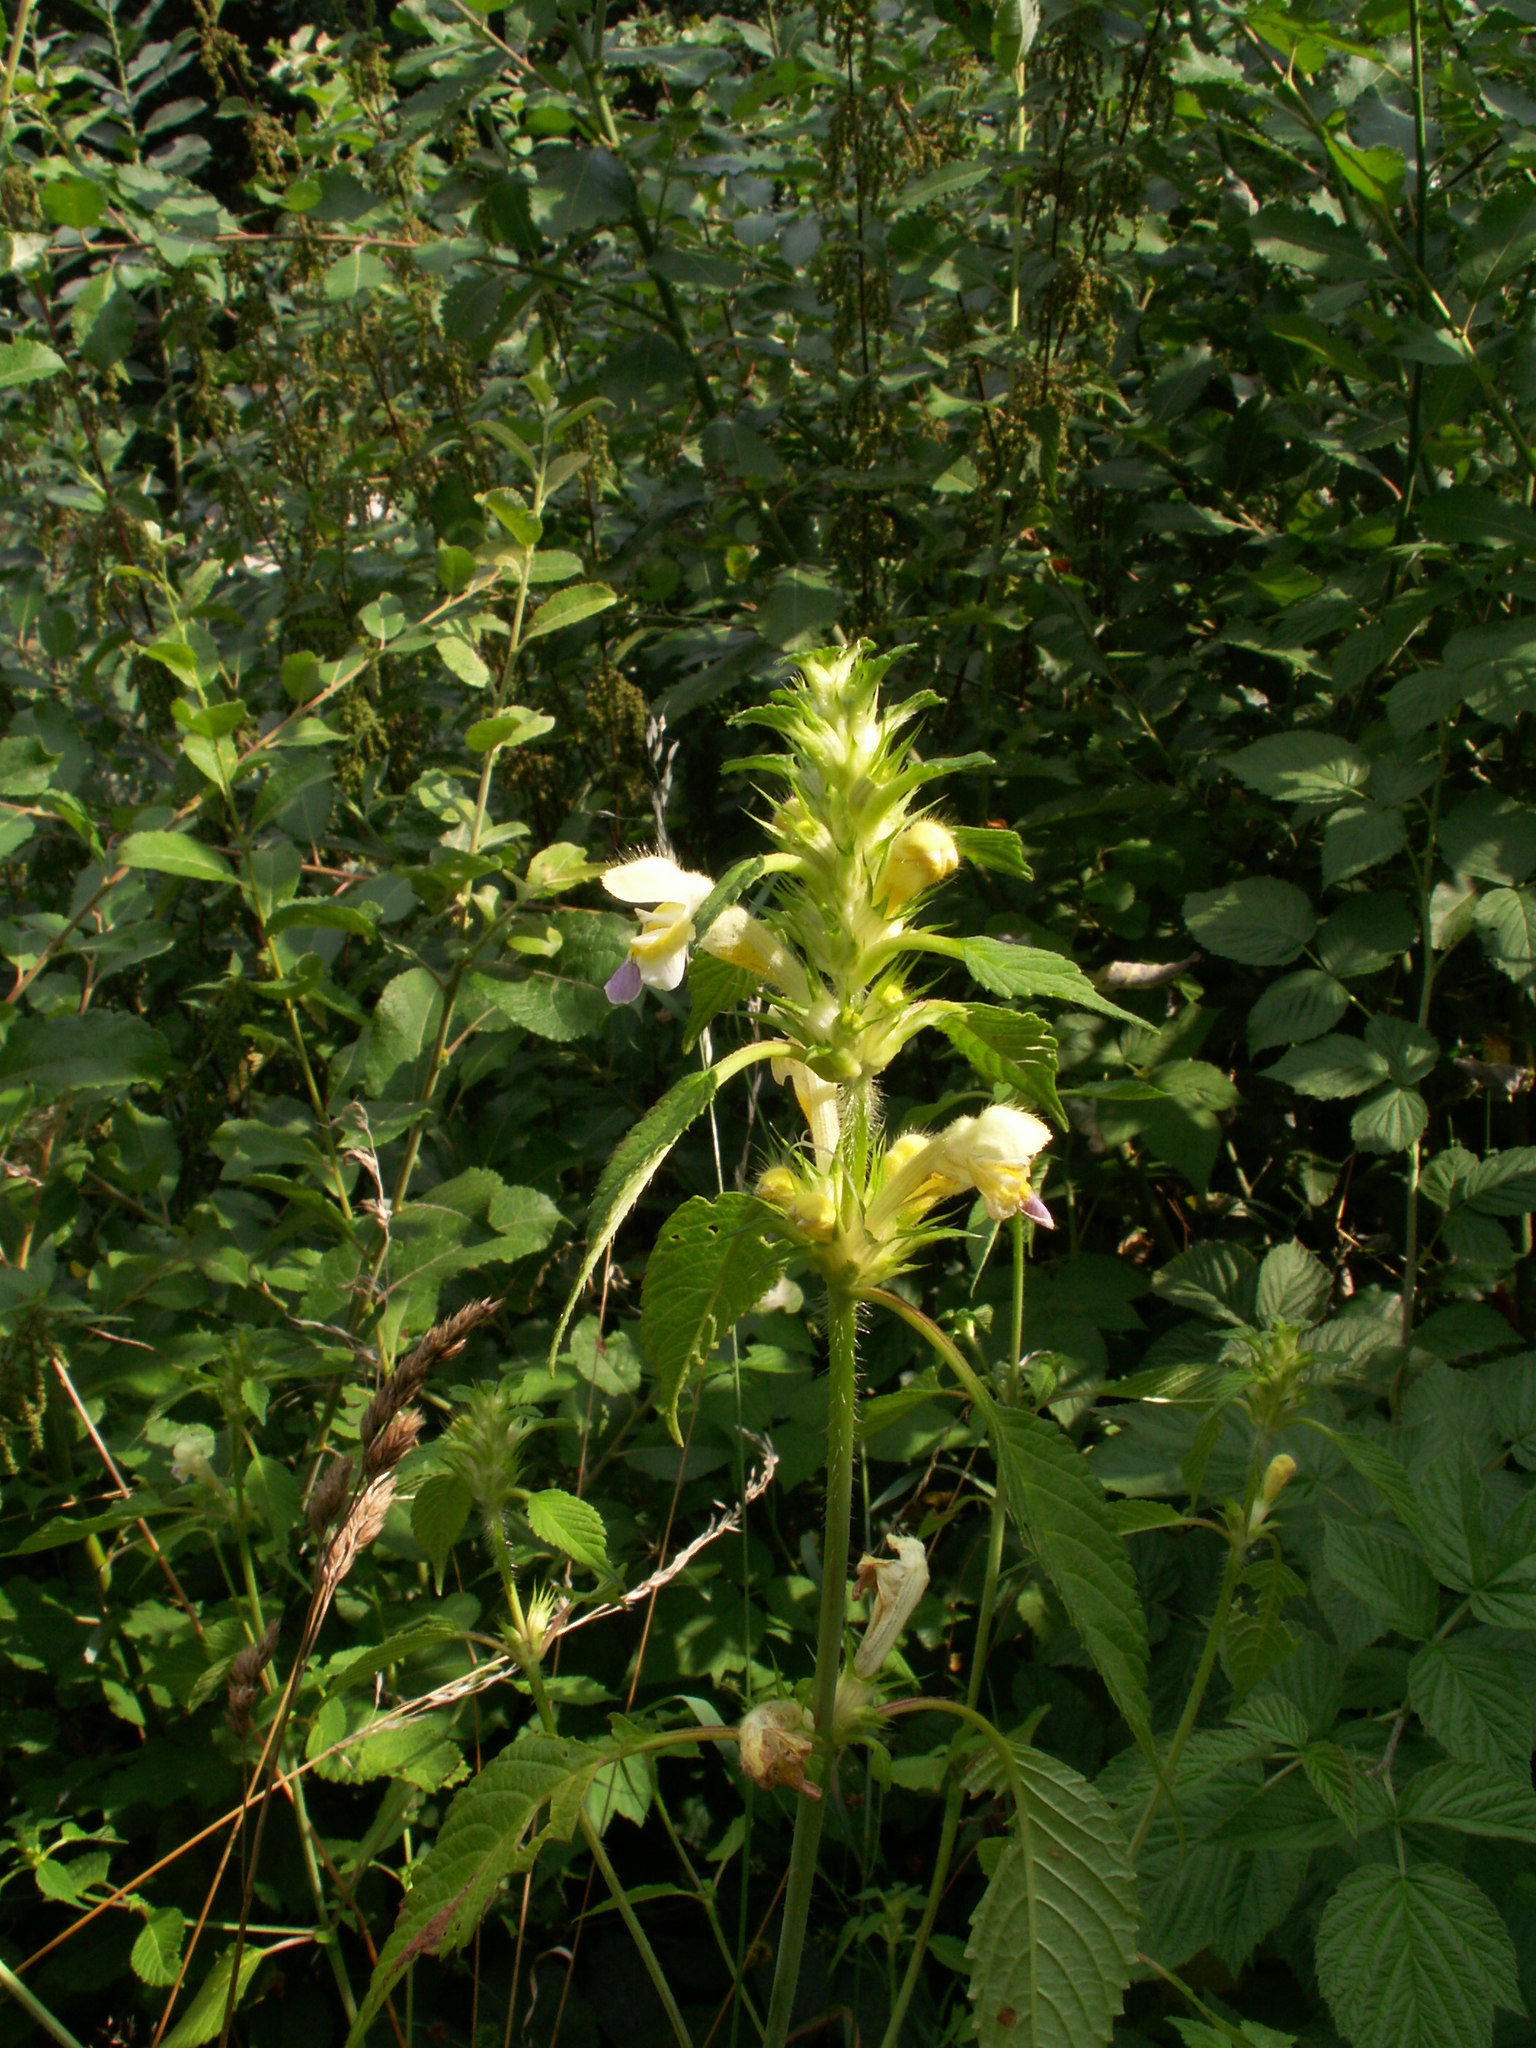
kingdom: Plantae
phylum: Tracheophyta
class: Magnoliopsida
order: Lamiales
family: Lamiaceae
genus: Galeopsis
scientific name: Galeopsis speciosa
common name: Large-flowered hemp-nettle
